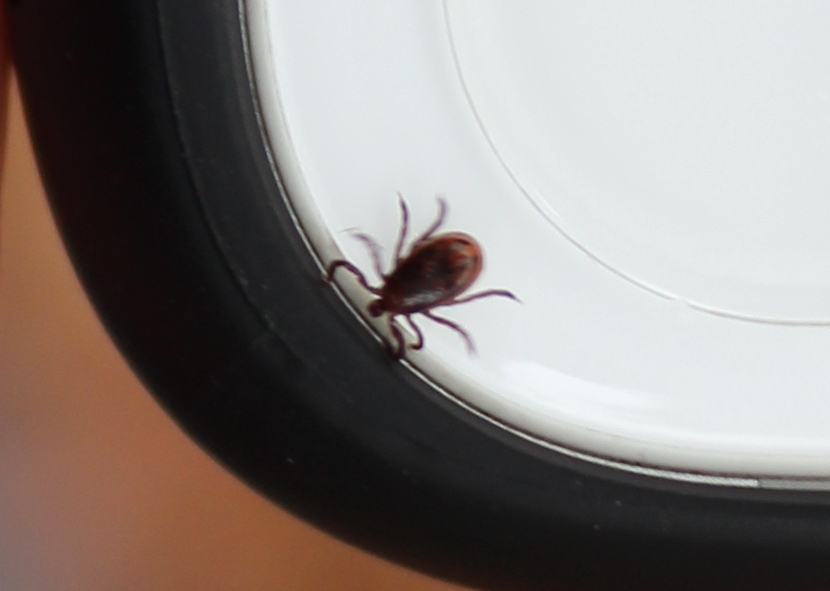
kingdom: Animalia
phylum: Arthropoda
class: Arachnida
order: Ixodida
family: Ixodidae
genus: Ixodes
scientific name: Ixodes scapularis
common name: Black legged tick
